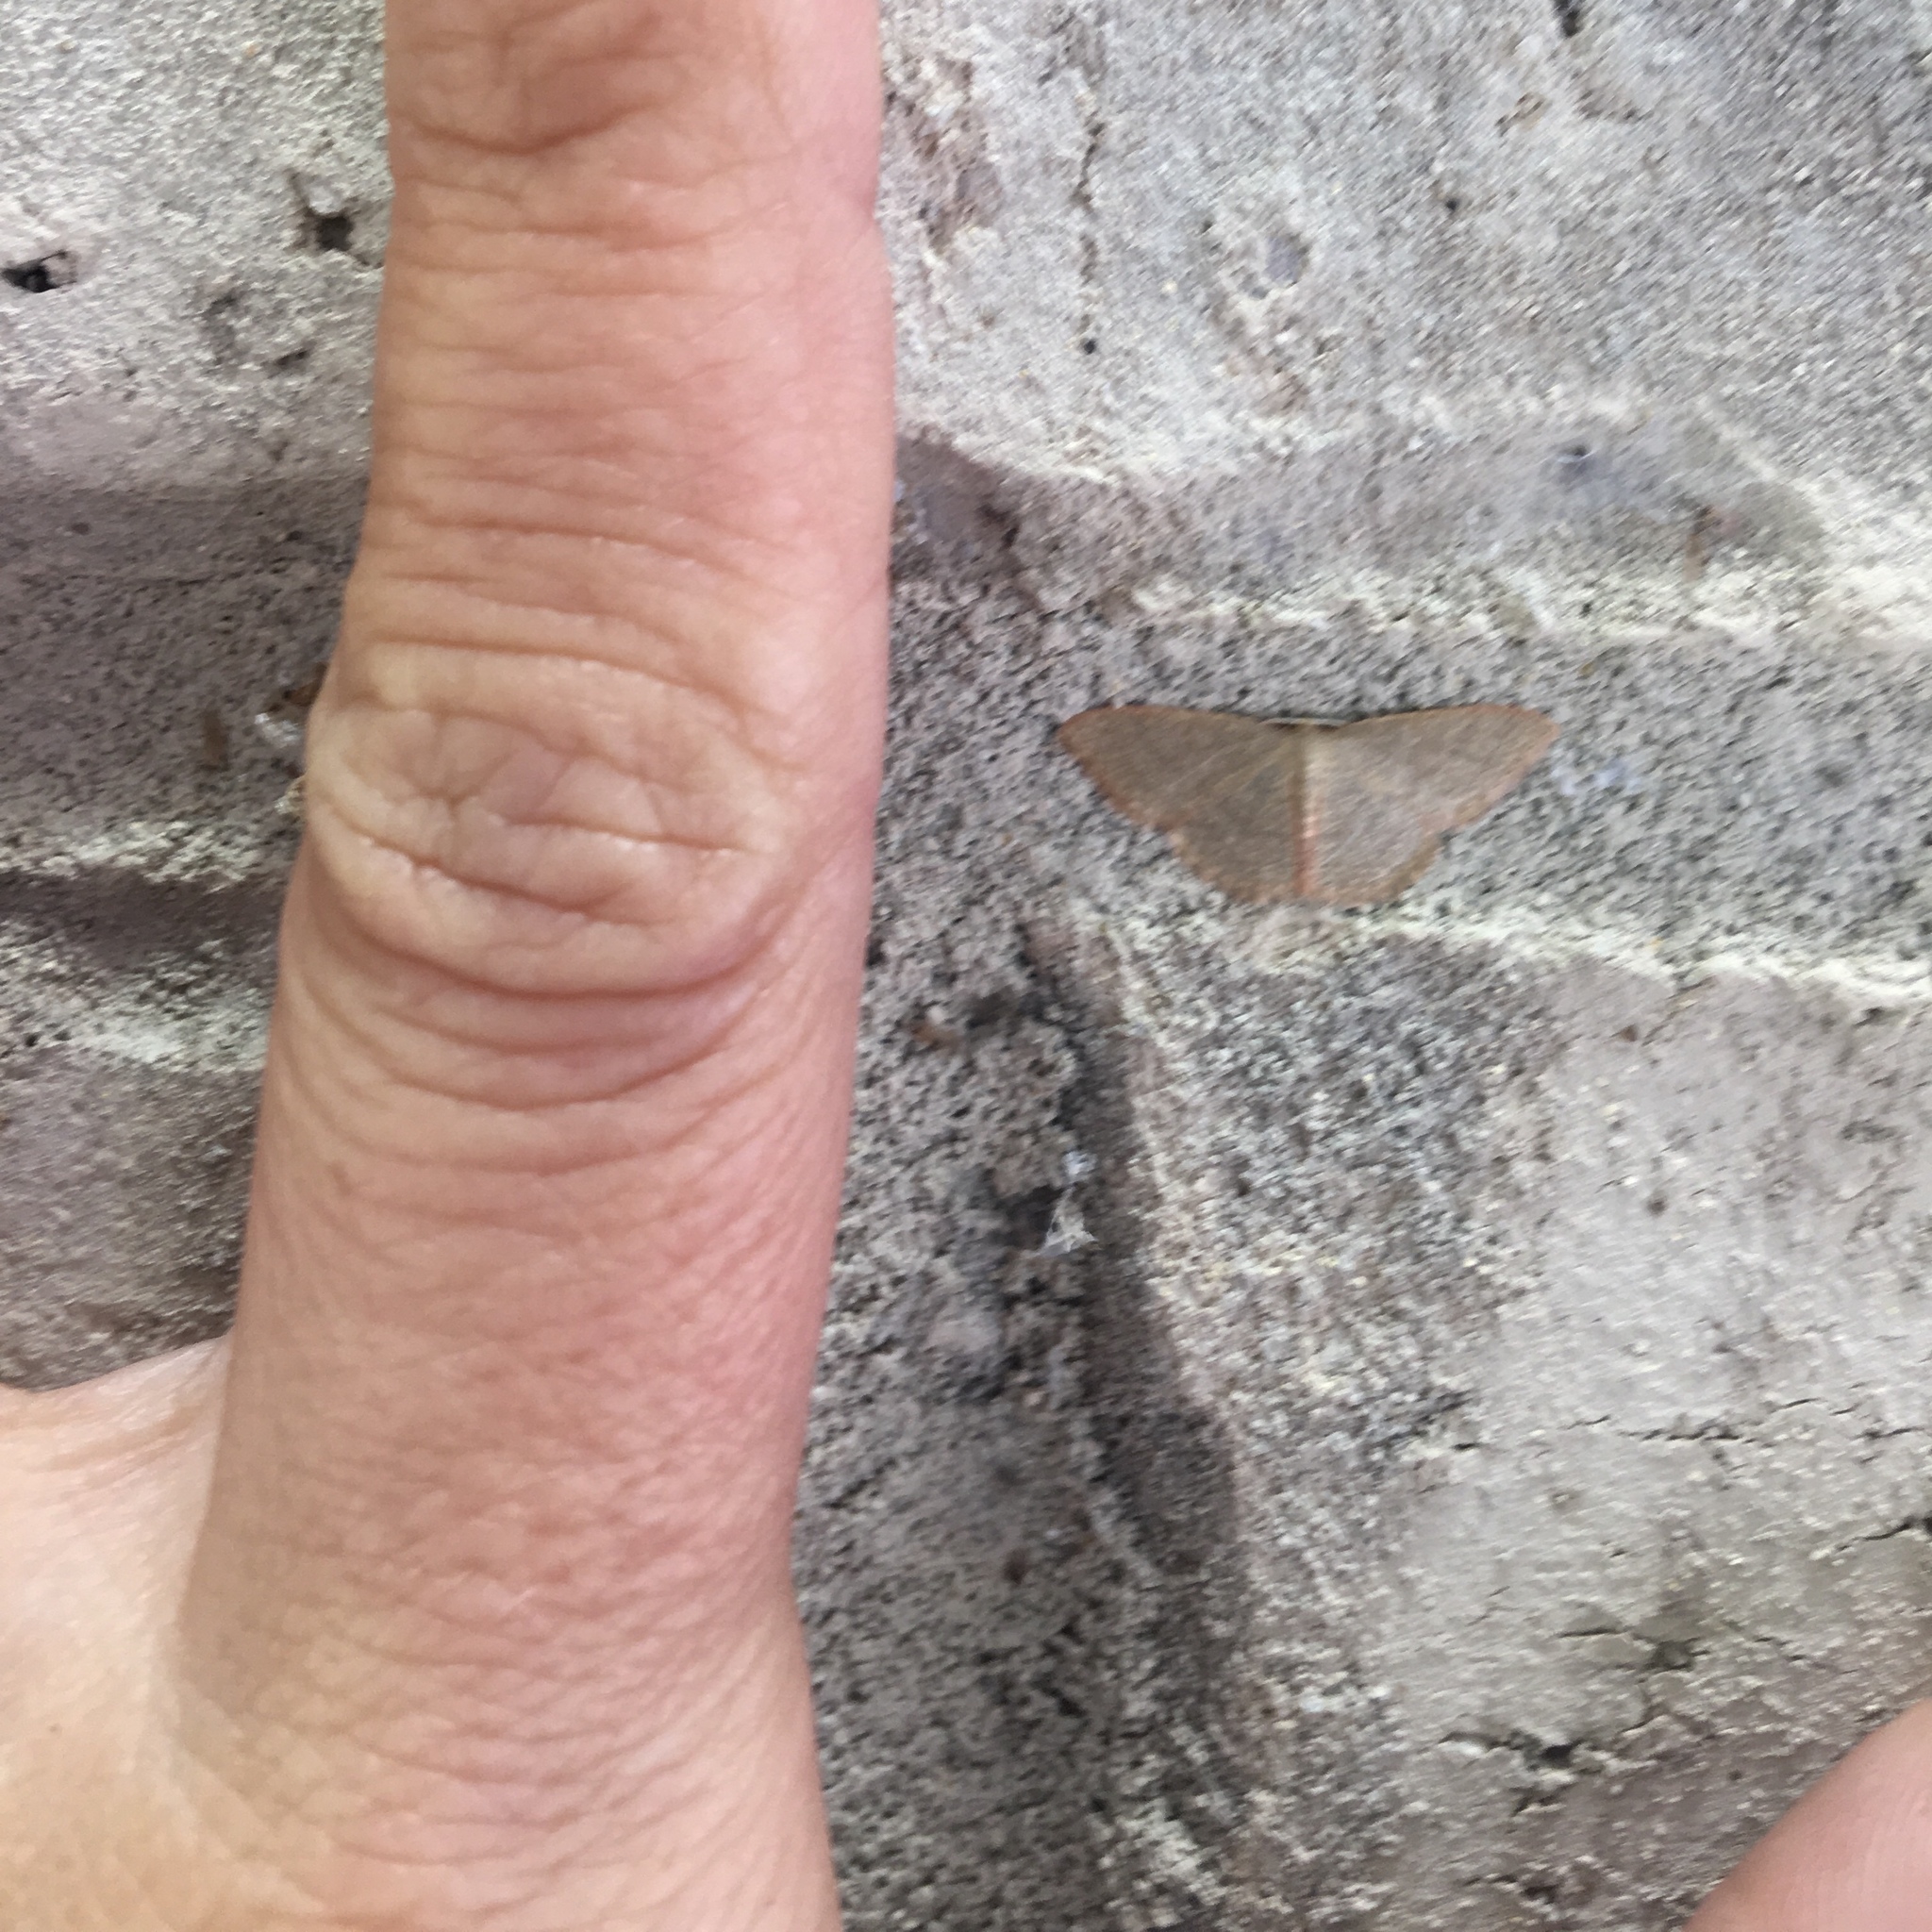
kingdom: Animalia
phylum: Arthropoda
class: Insecta
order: Lepidoptera
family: Geometridae
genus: Pleuroprucha
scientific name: Pleuroprucha insulsaria
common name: Common tan wave
